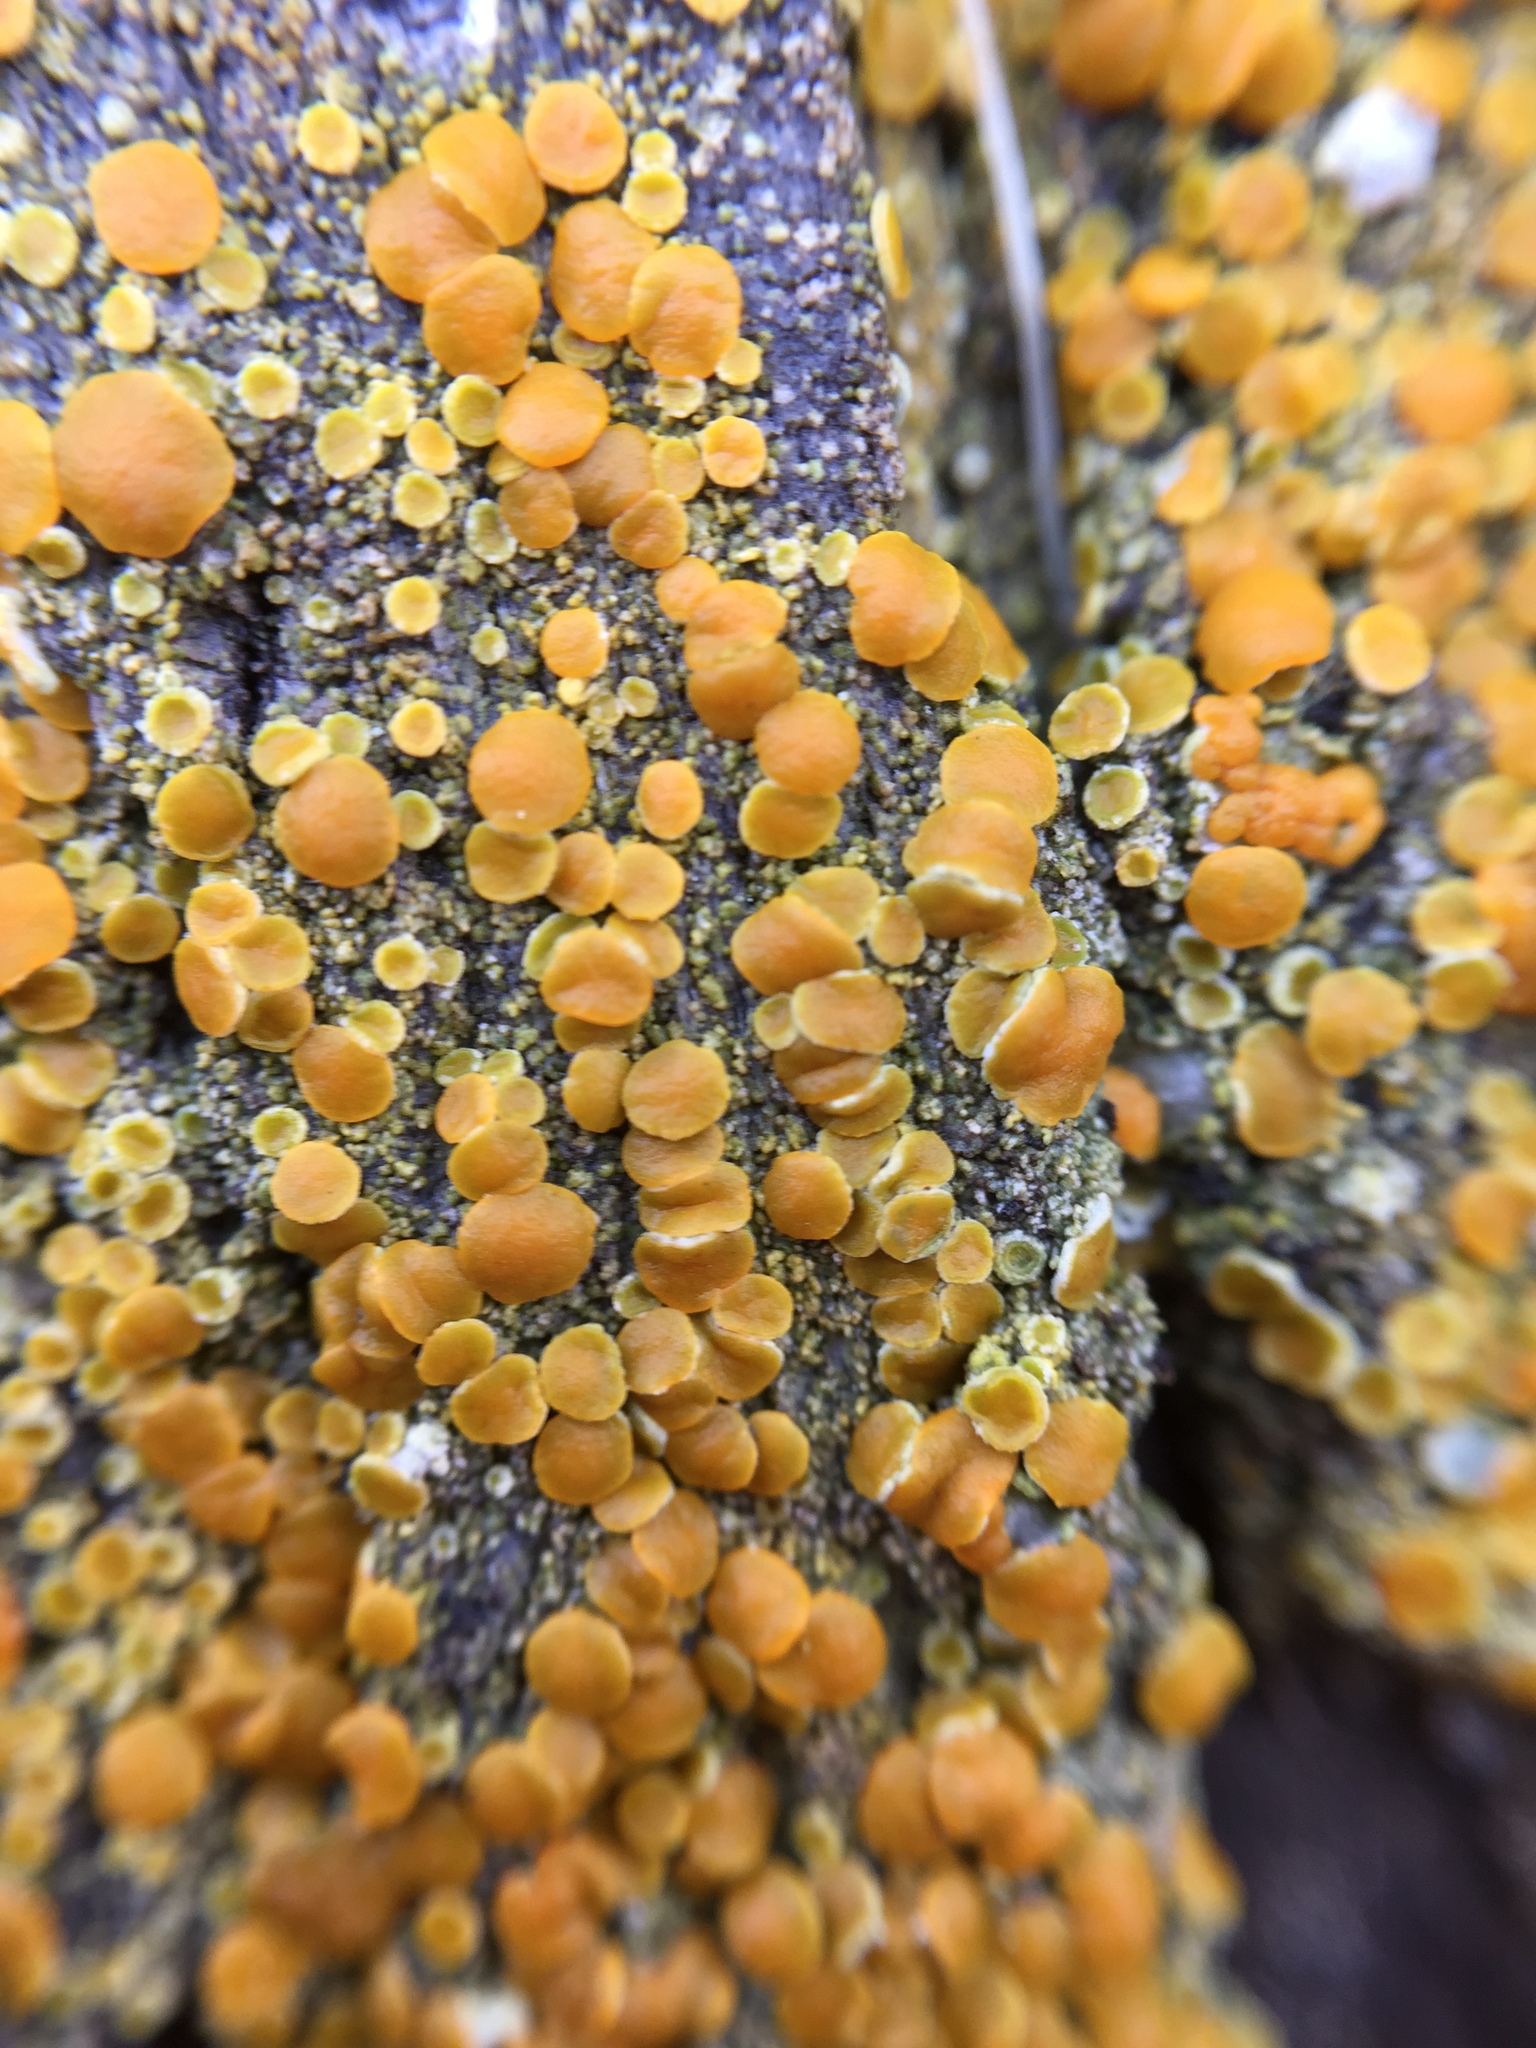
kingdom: Fungi
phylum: Ascomycota
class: Lecanoromycetes
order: Teloschistales
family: Teloschistaceae
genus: Opeltia
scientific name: Opeltia flavorubescens
